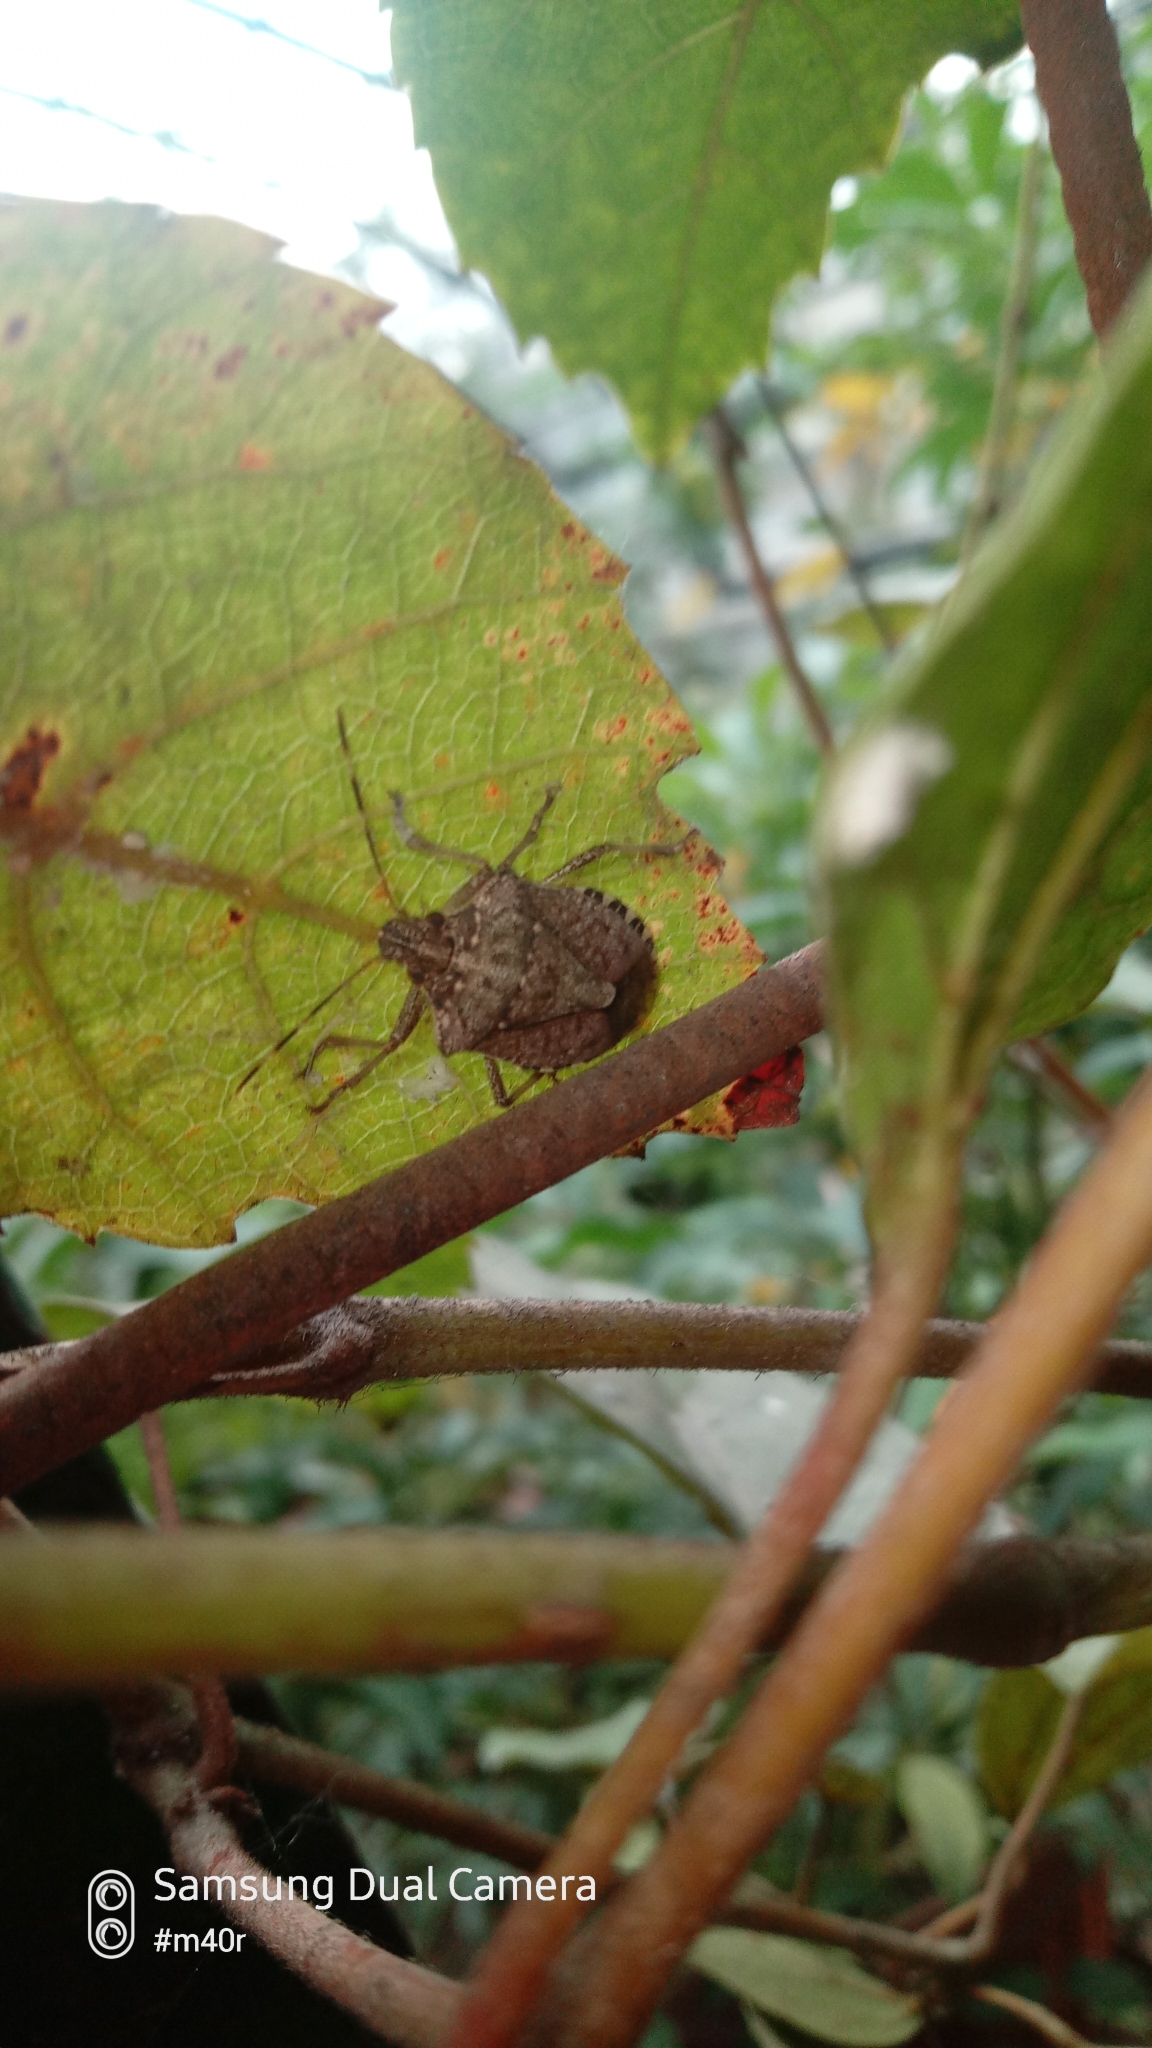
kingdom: Animalia
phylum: Arthropoda
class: Insecta
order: Hemiptera
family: Pentatomidae
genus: Halyomorpha
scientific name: Halyomorpha halys
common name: Brown marmorated stink bug
